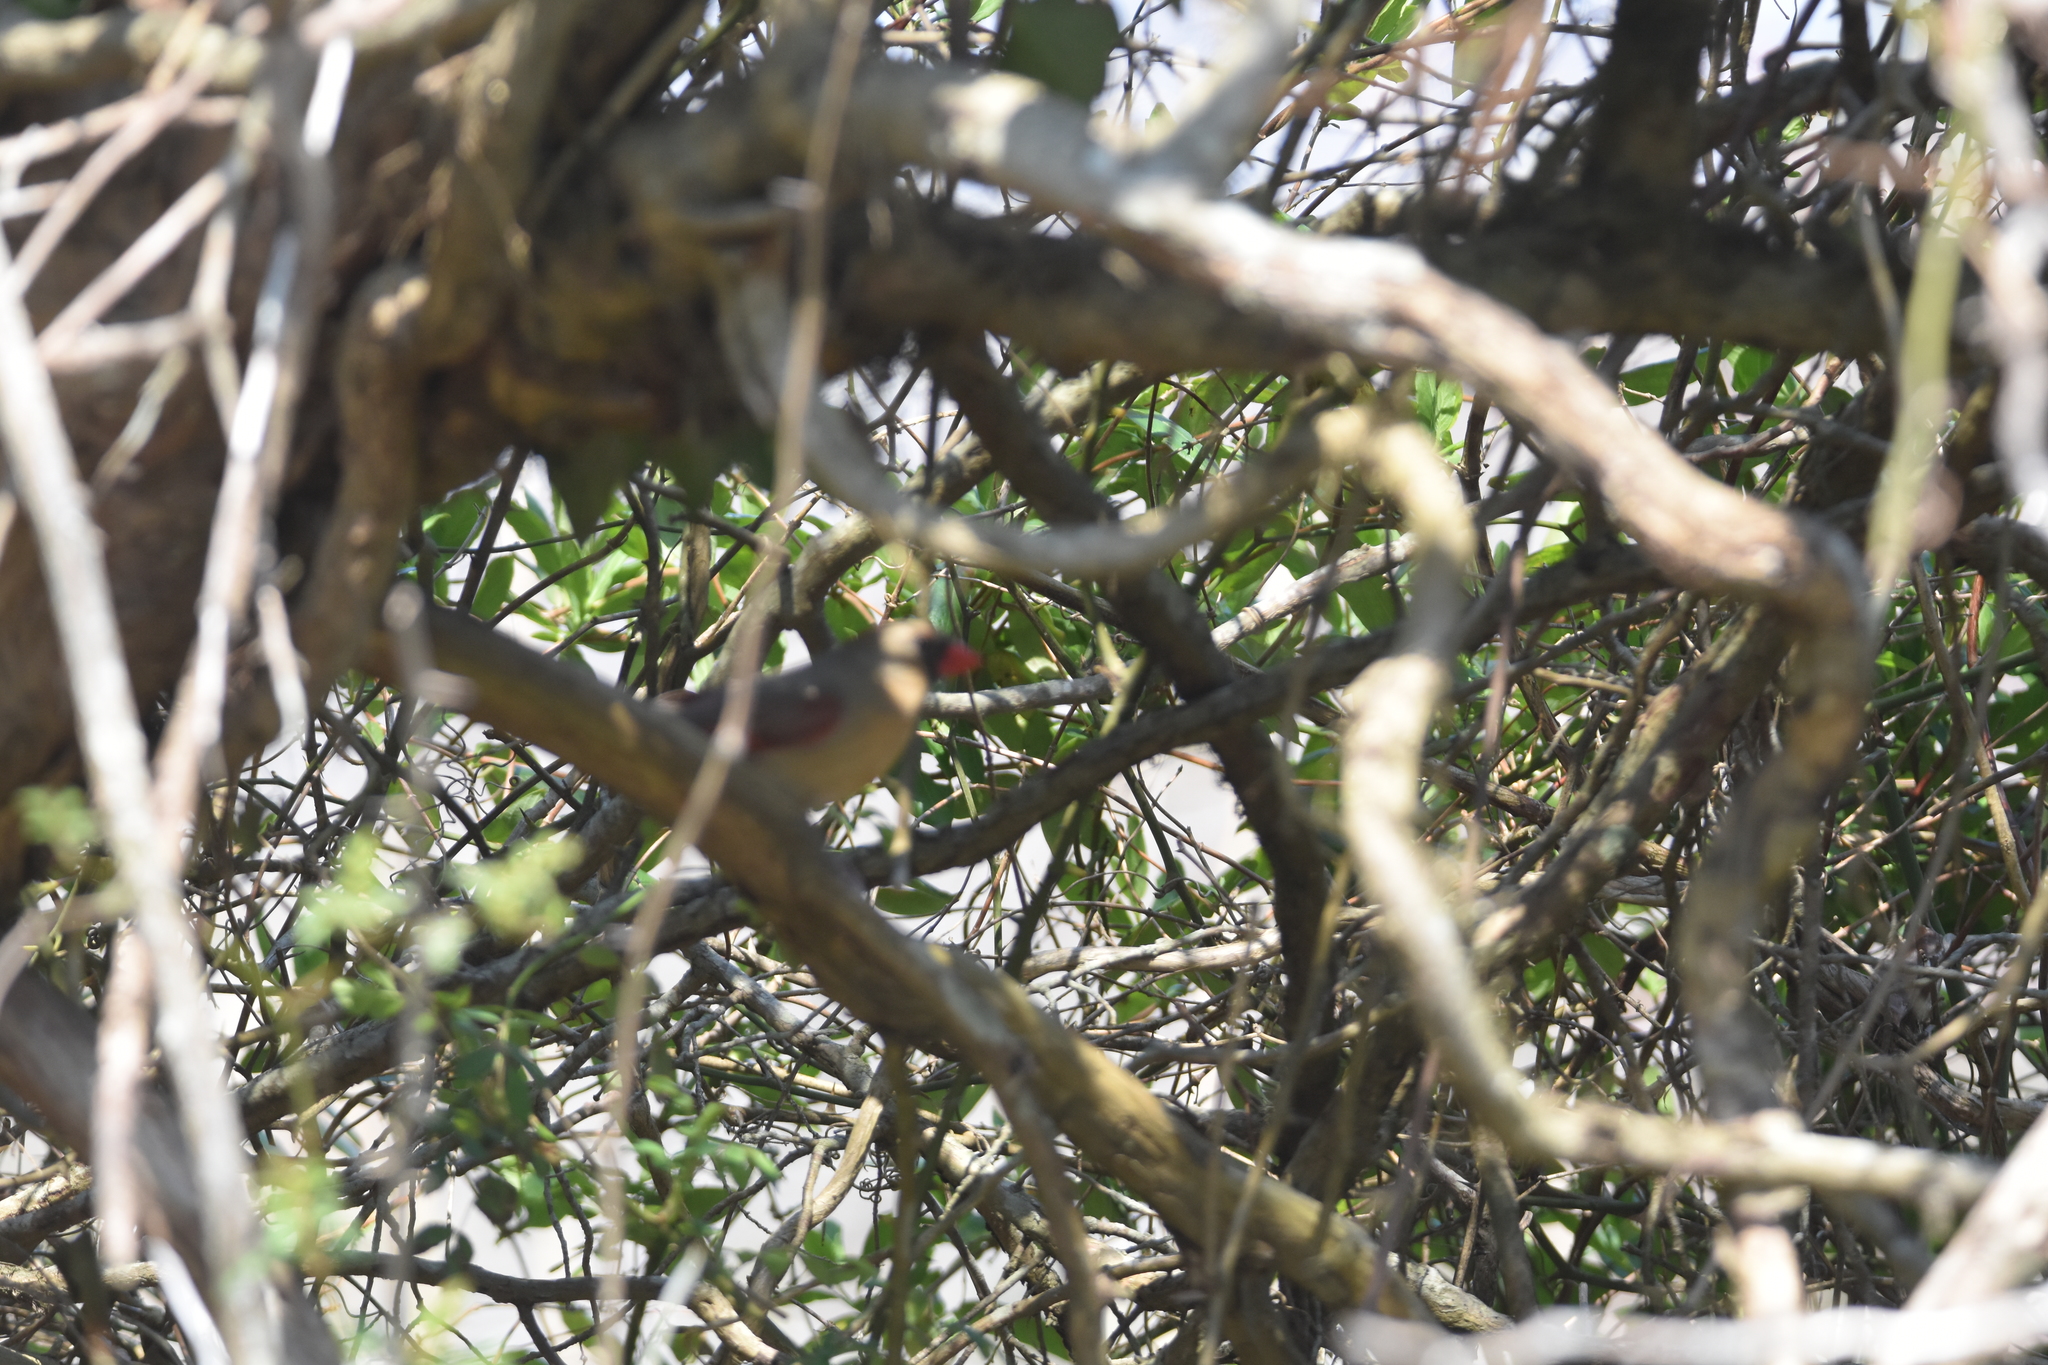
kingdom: Animalia
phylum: Chordata
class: Aves
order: Passeriformes
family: Cardinalidae
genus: Cardinalis
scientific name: Cardinalis cardinalis
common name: Northern cardinal
